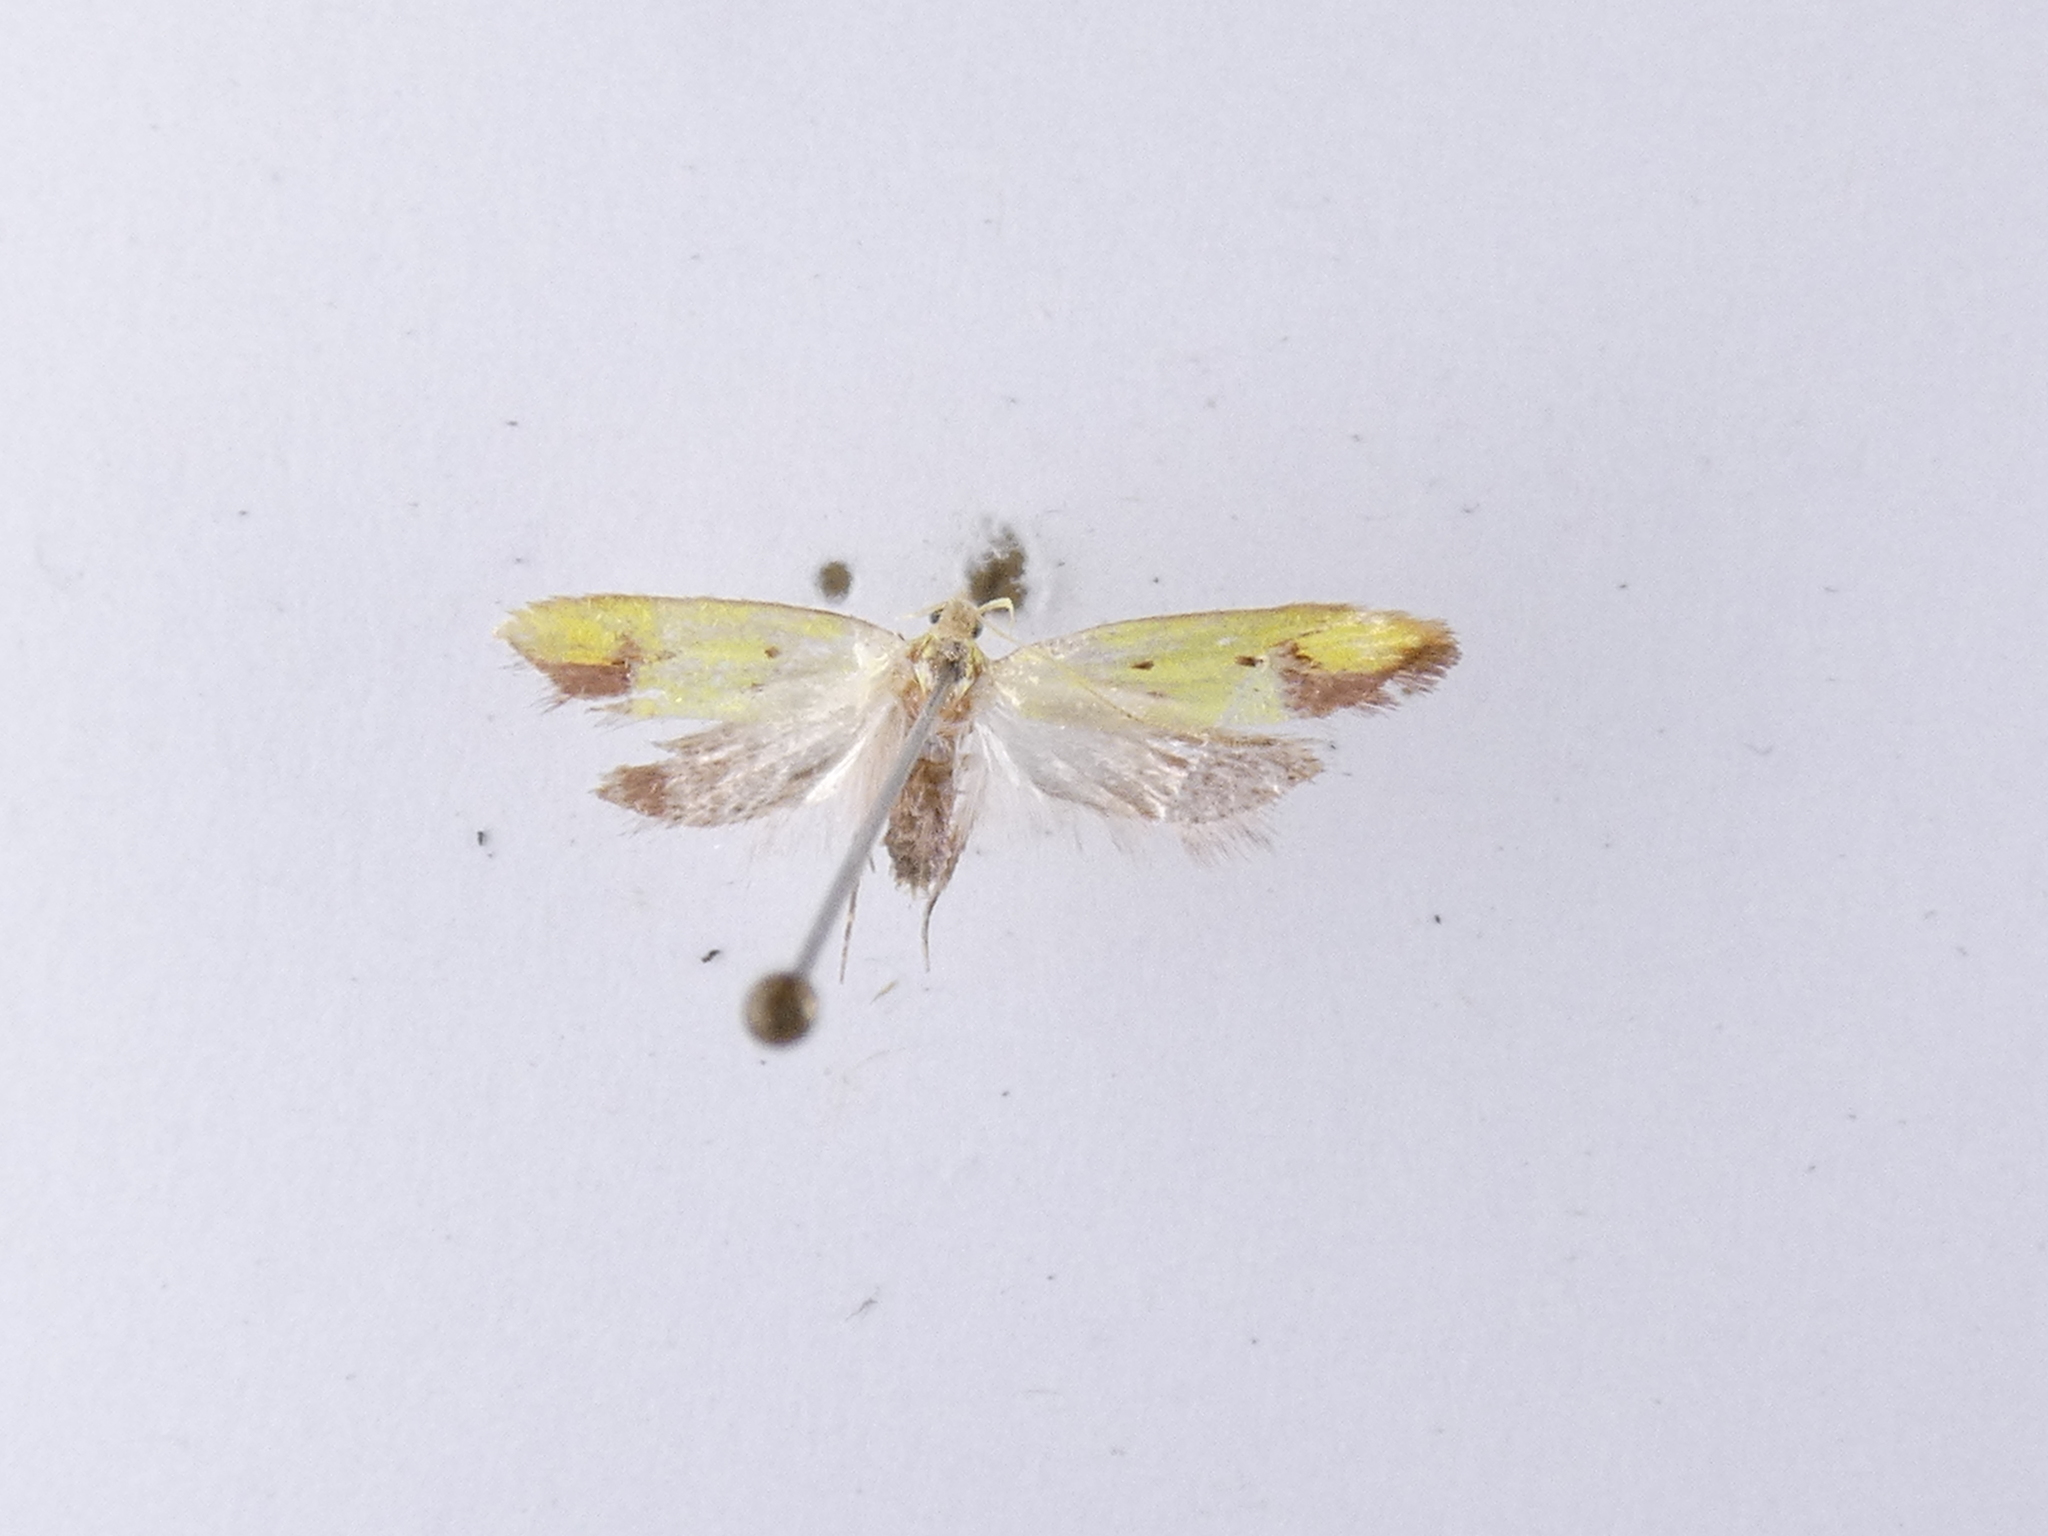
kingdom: Animalia
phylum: Arthropoda
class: Insecta
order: Lepidoptera
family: Oecophoridae
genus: Gymnobathra
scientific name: Gymnobathra flavidella
